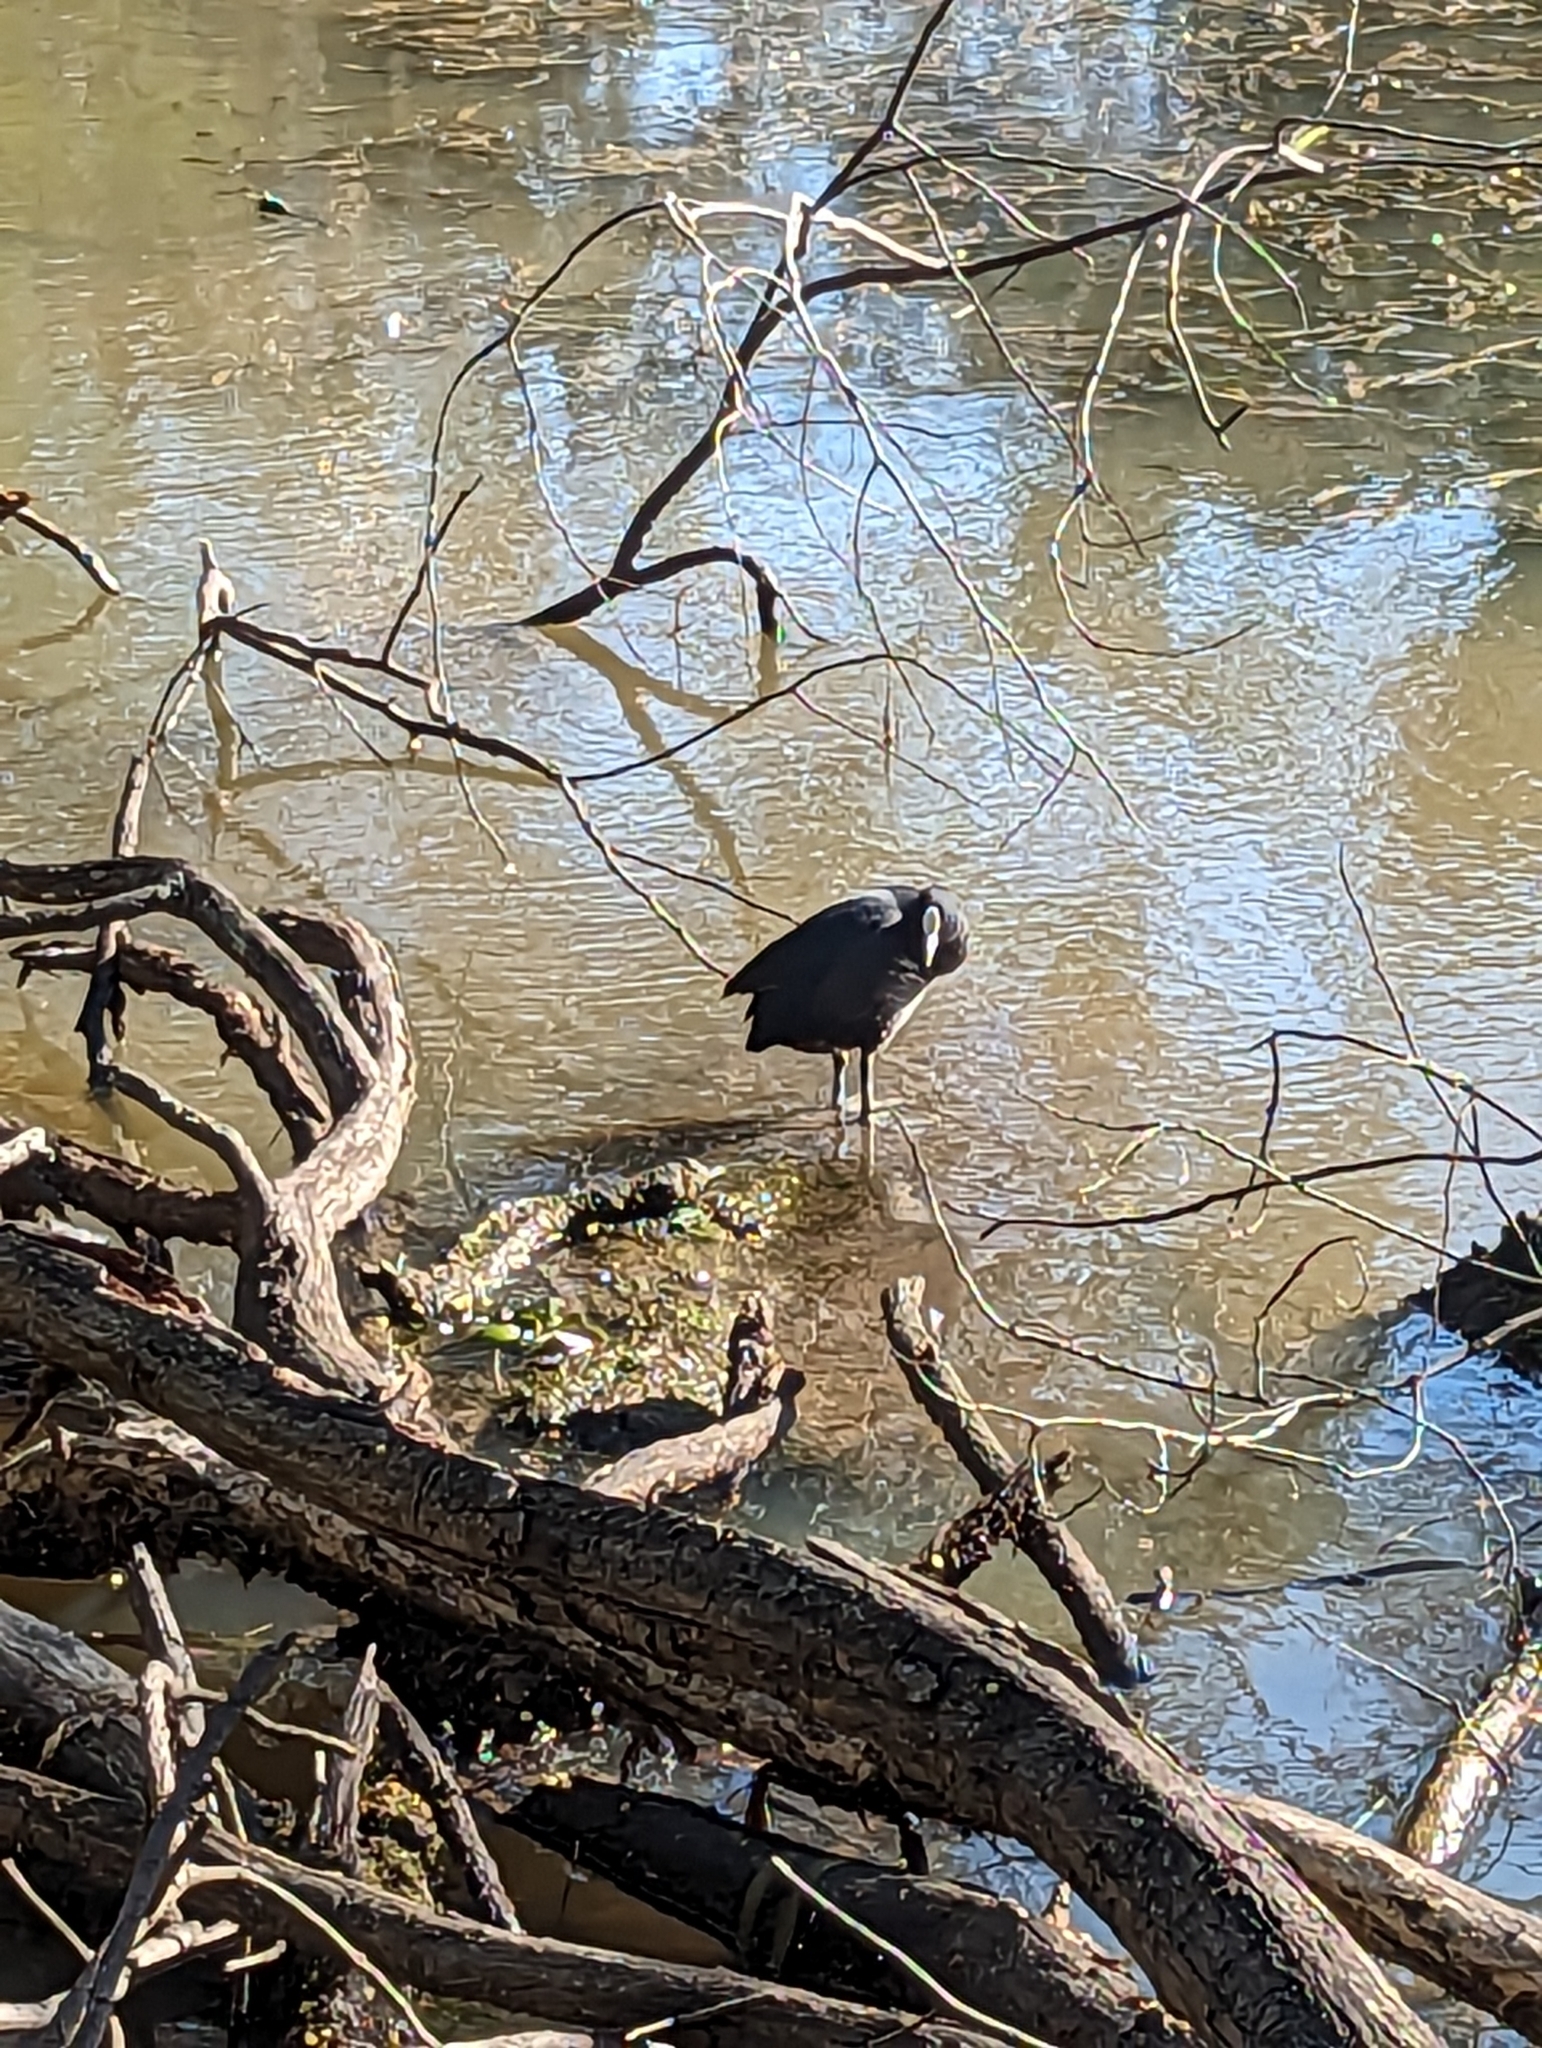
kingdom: Animalia
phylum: Chordata
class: Aves
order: Gruiformes
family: Rallidae
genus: Fulica
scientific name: Fulica atra
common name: Eurasian coot
